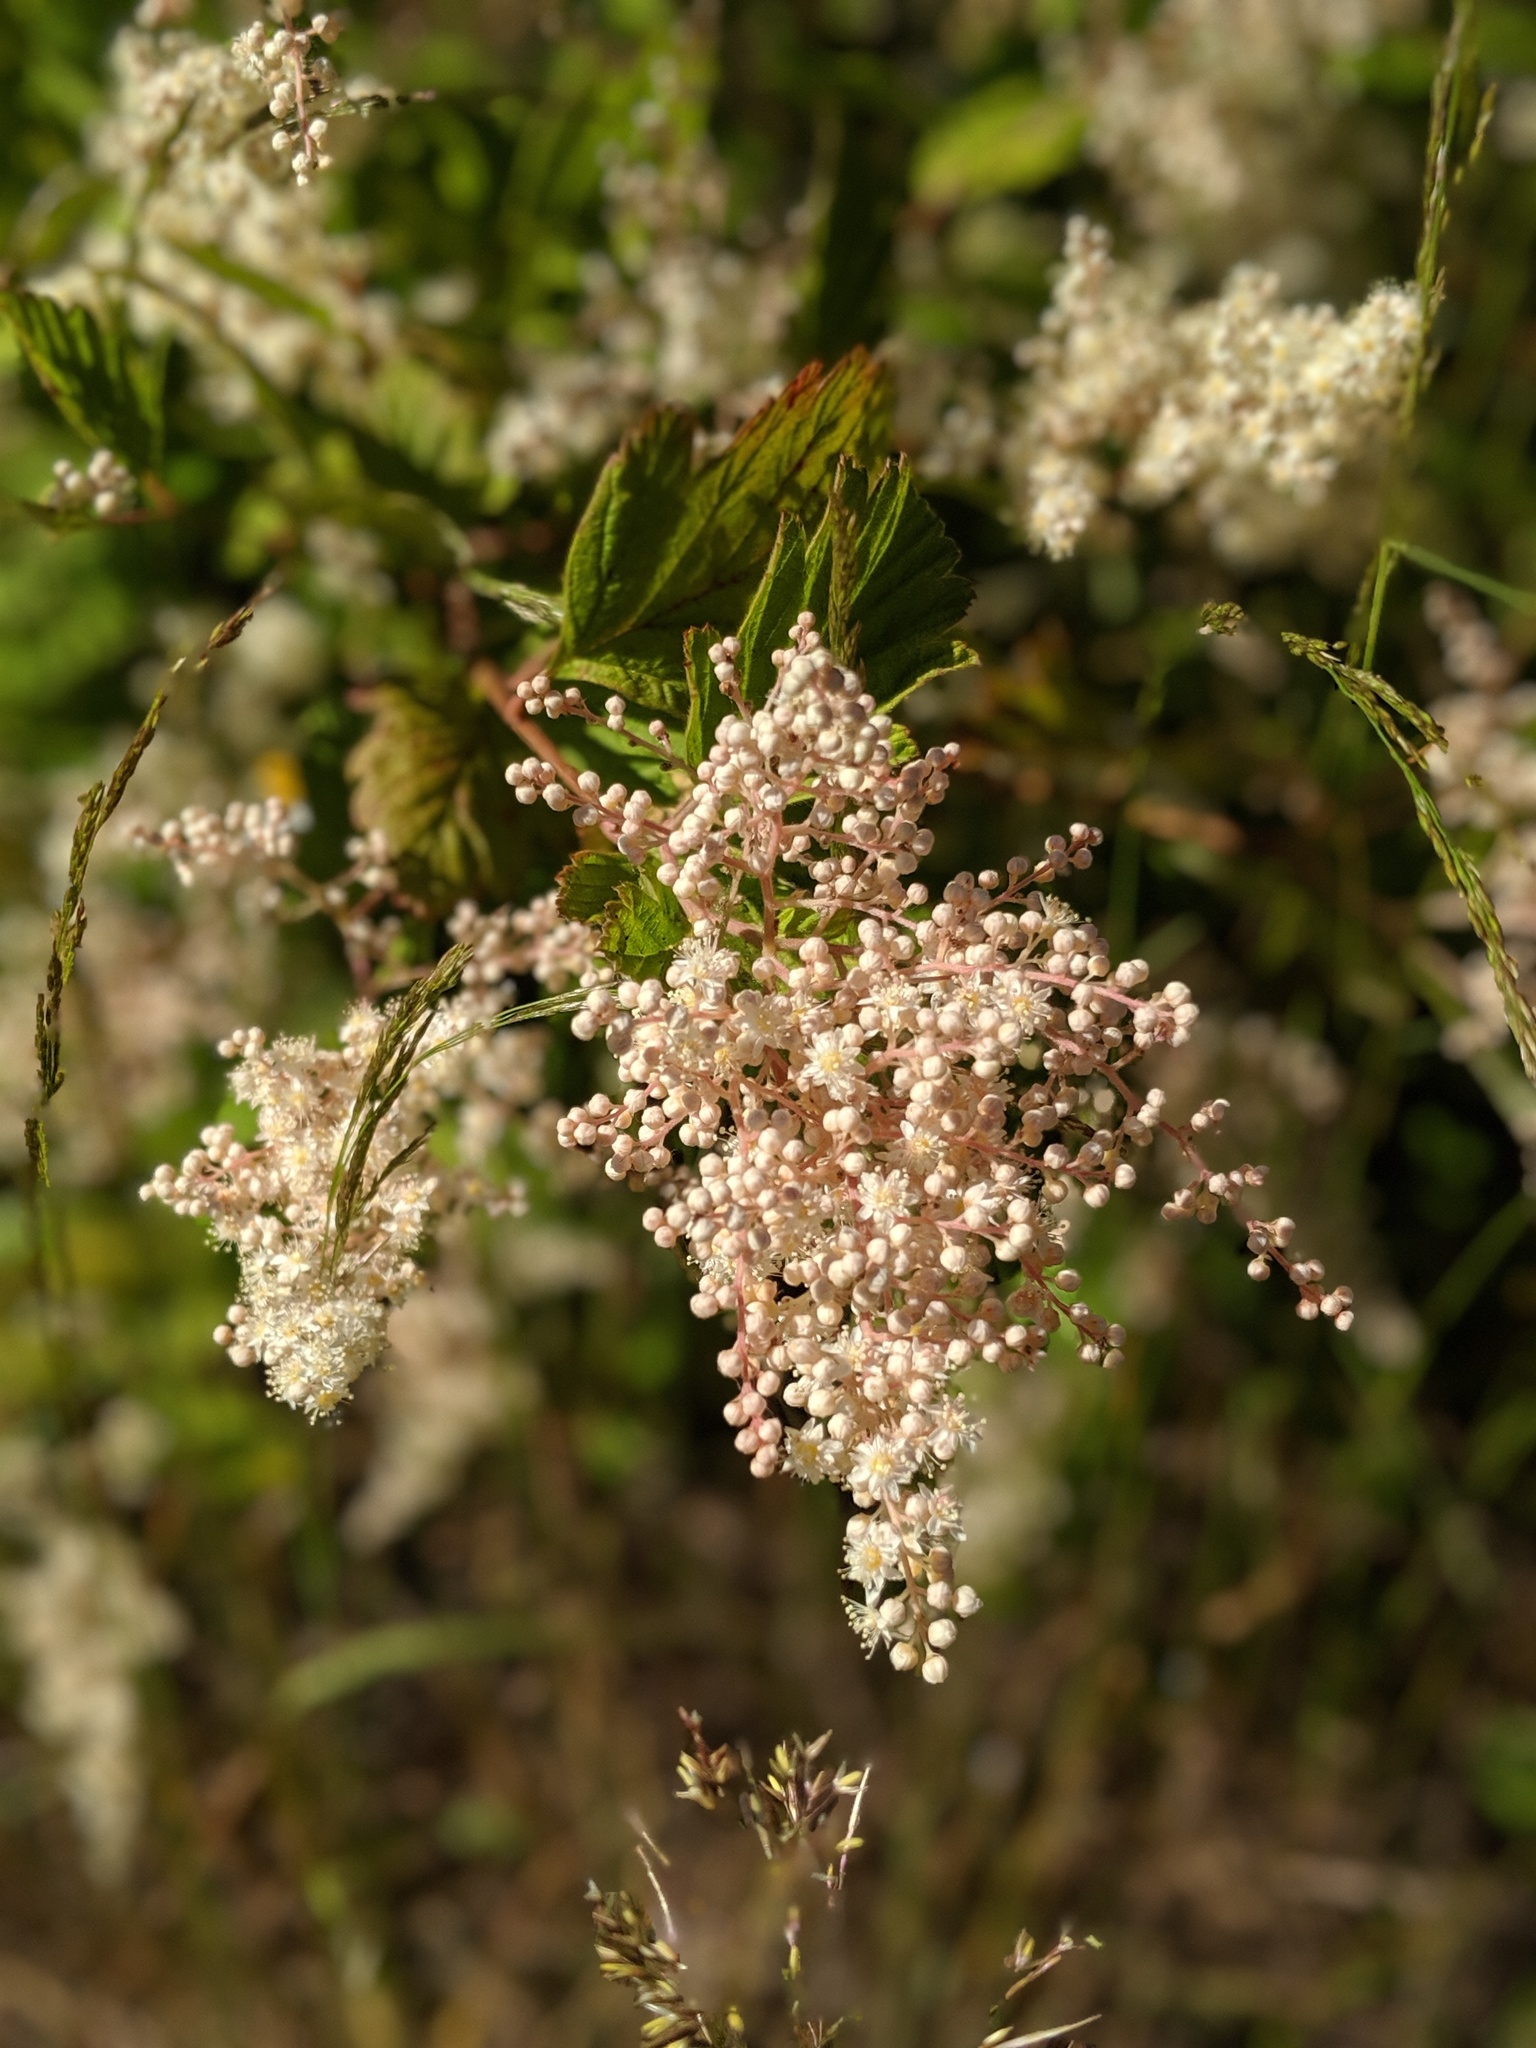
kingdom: Plantae
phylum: Tracheophyta
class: Magnoliopsida
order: Rosales
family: Rosaceae
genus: Holodiscus
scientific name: Holodiscus discolor
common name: Oceanspray
